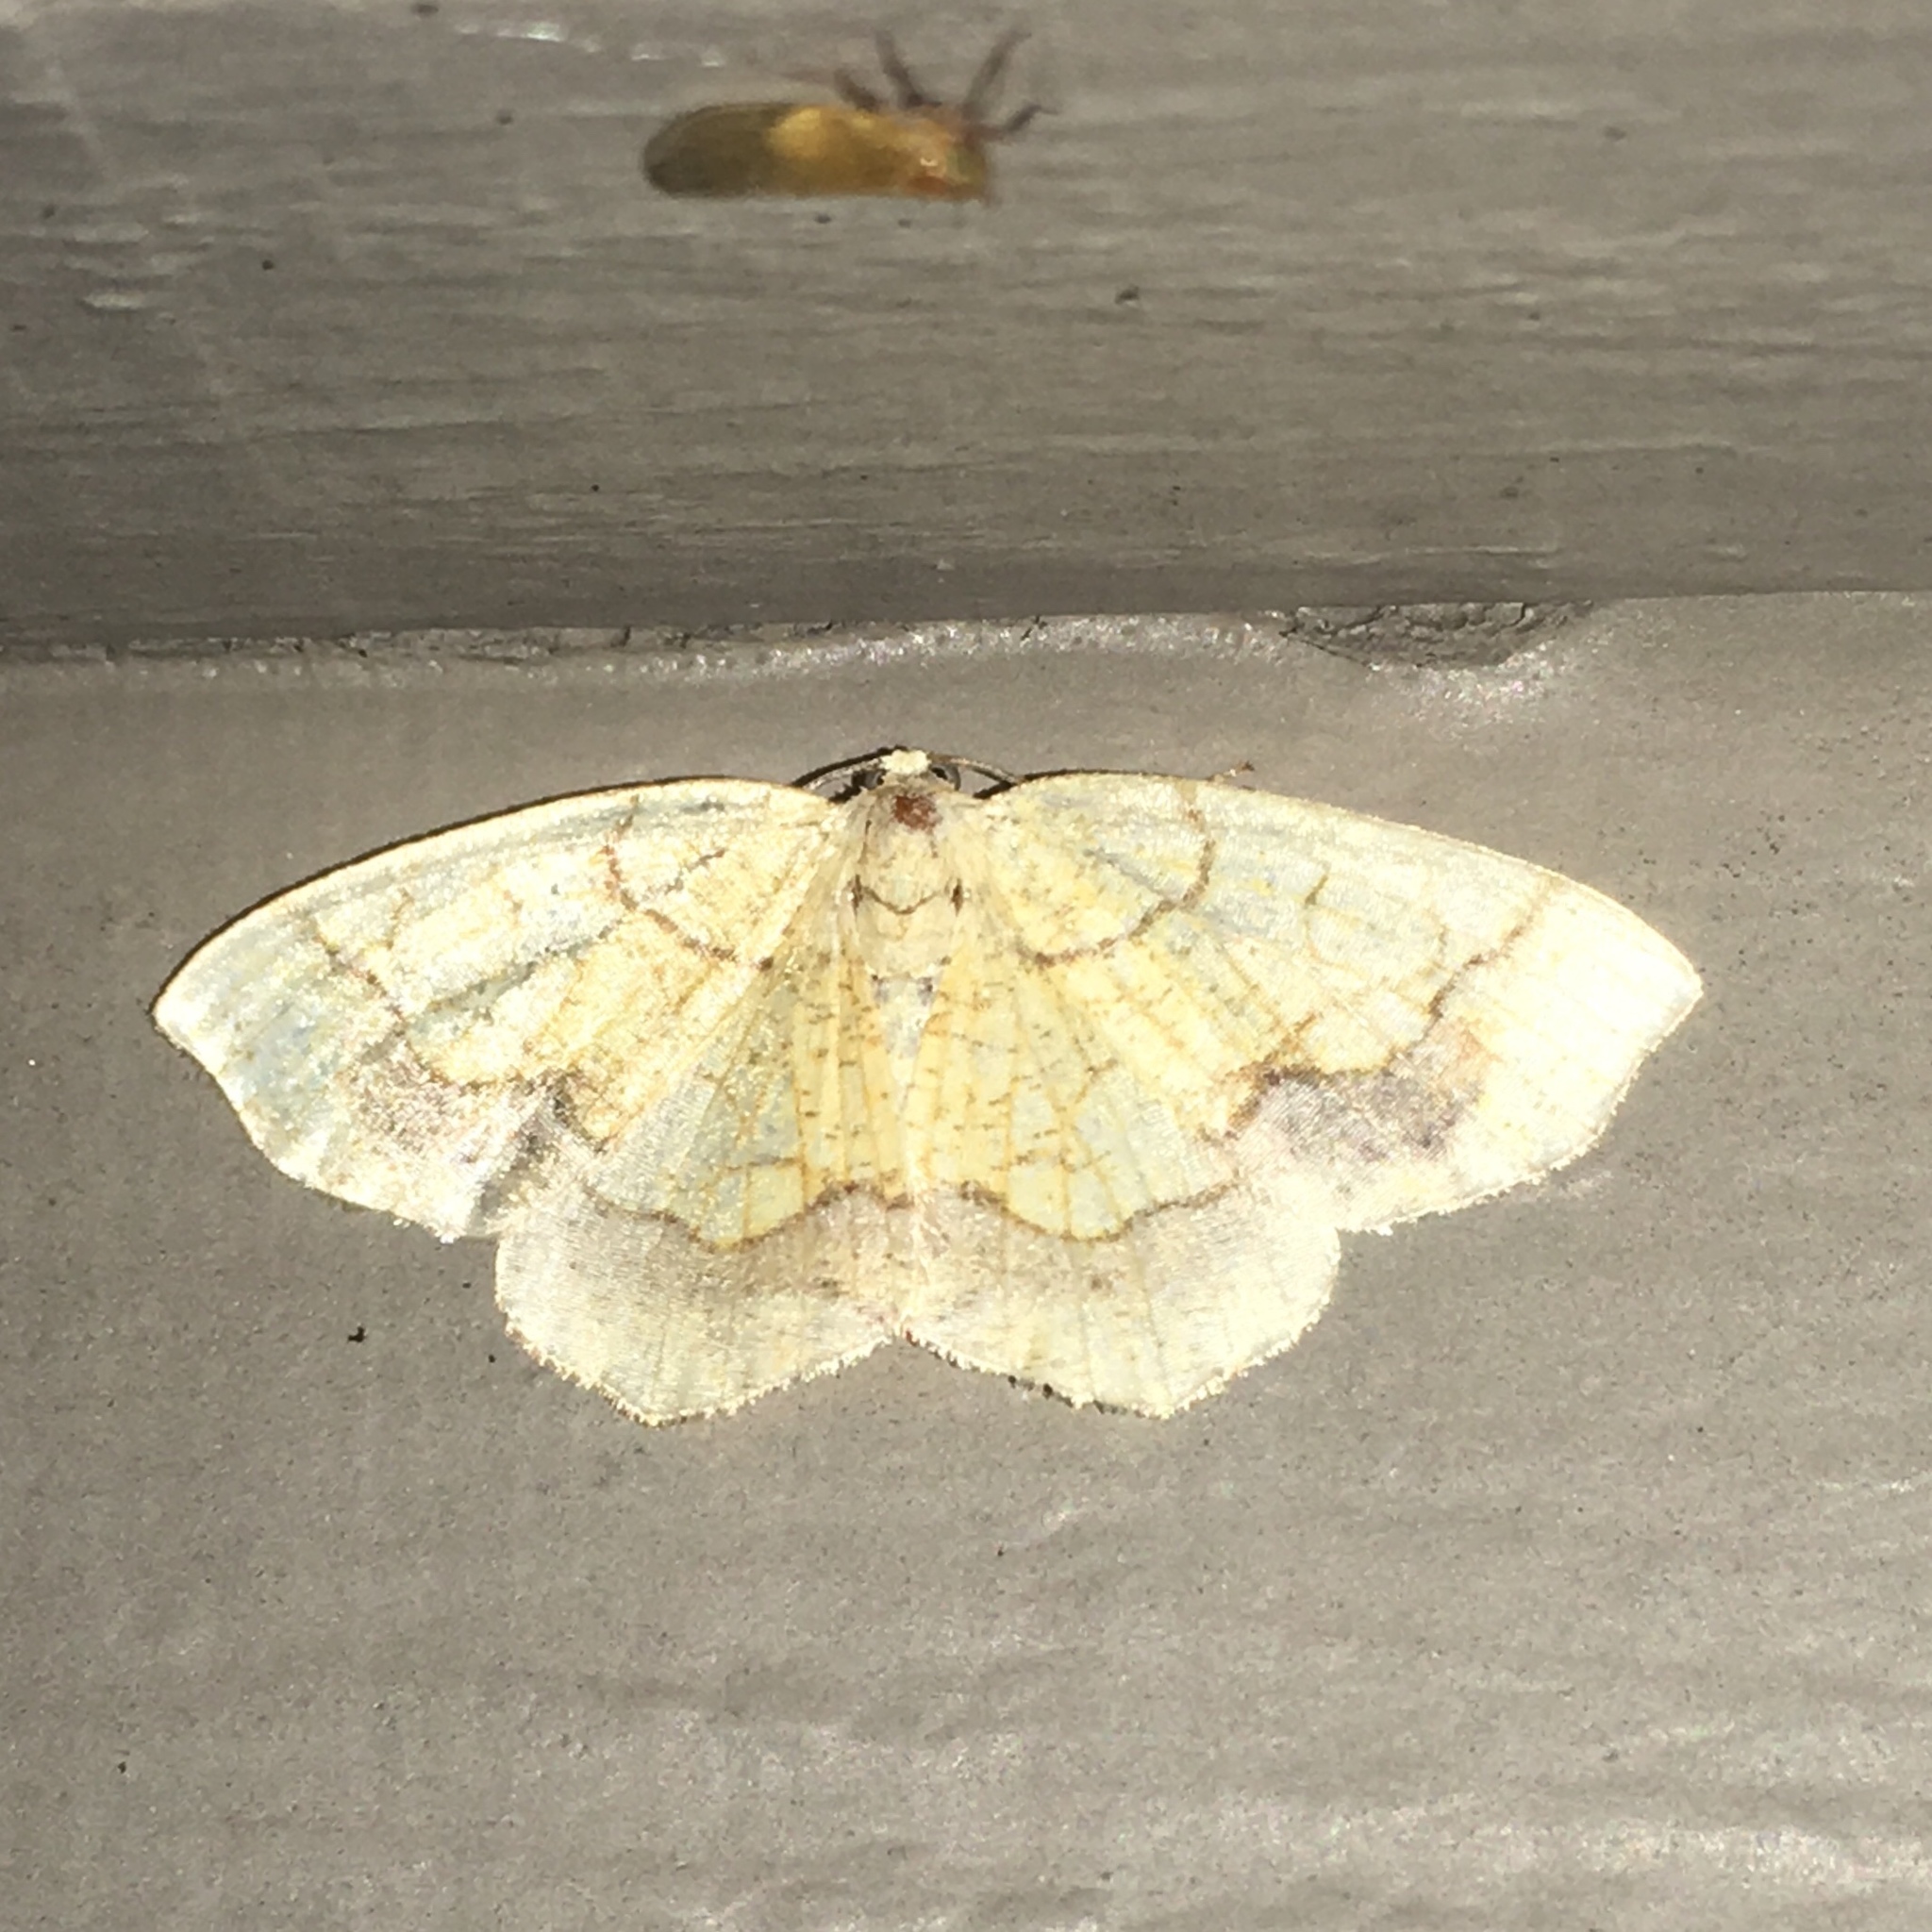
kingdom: Animalia
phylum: Arthropoda
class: Insecta
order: Lepidoptera
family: Geometridae
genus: Nematocampa
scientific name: Nematocampa resistaria
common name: Horned spanworm moth
